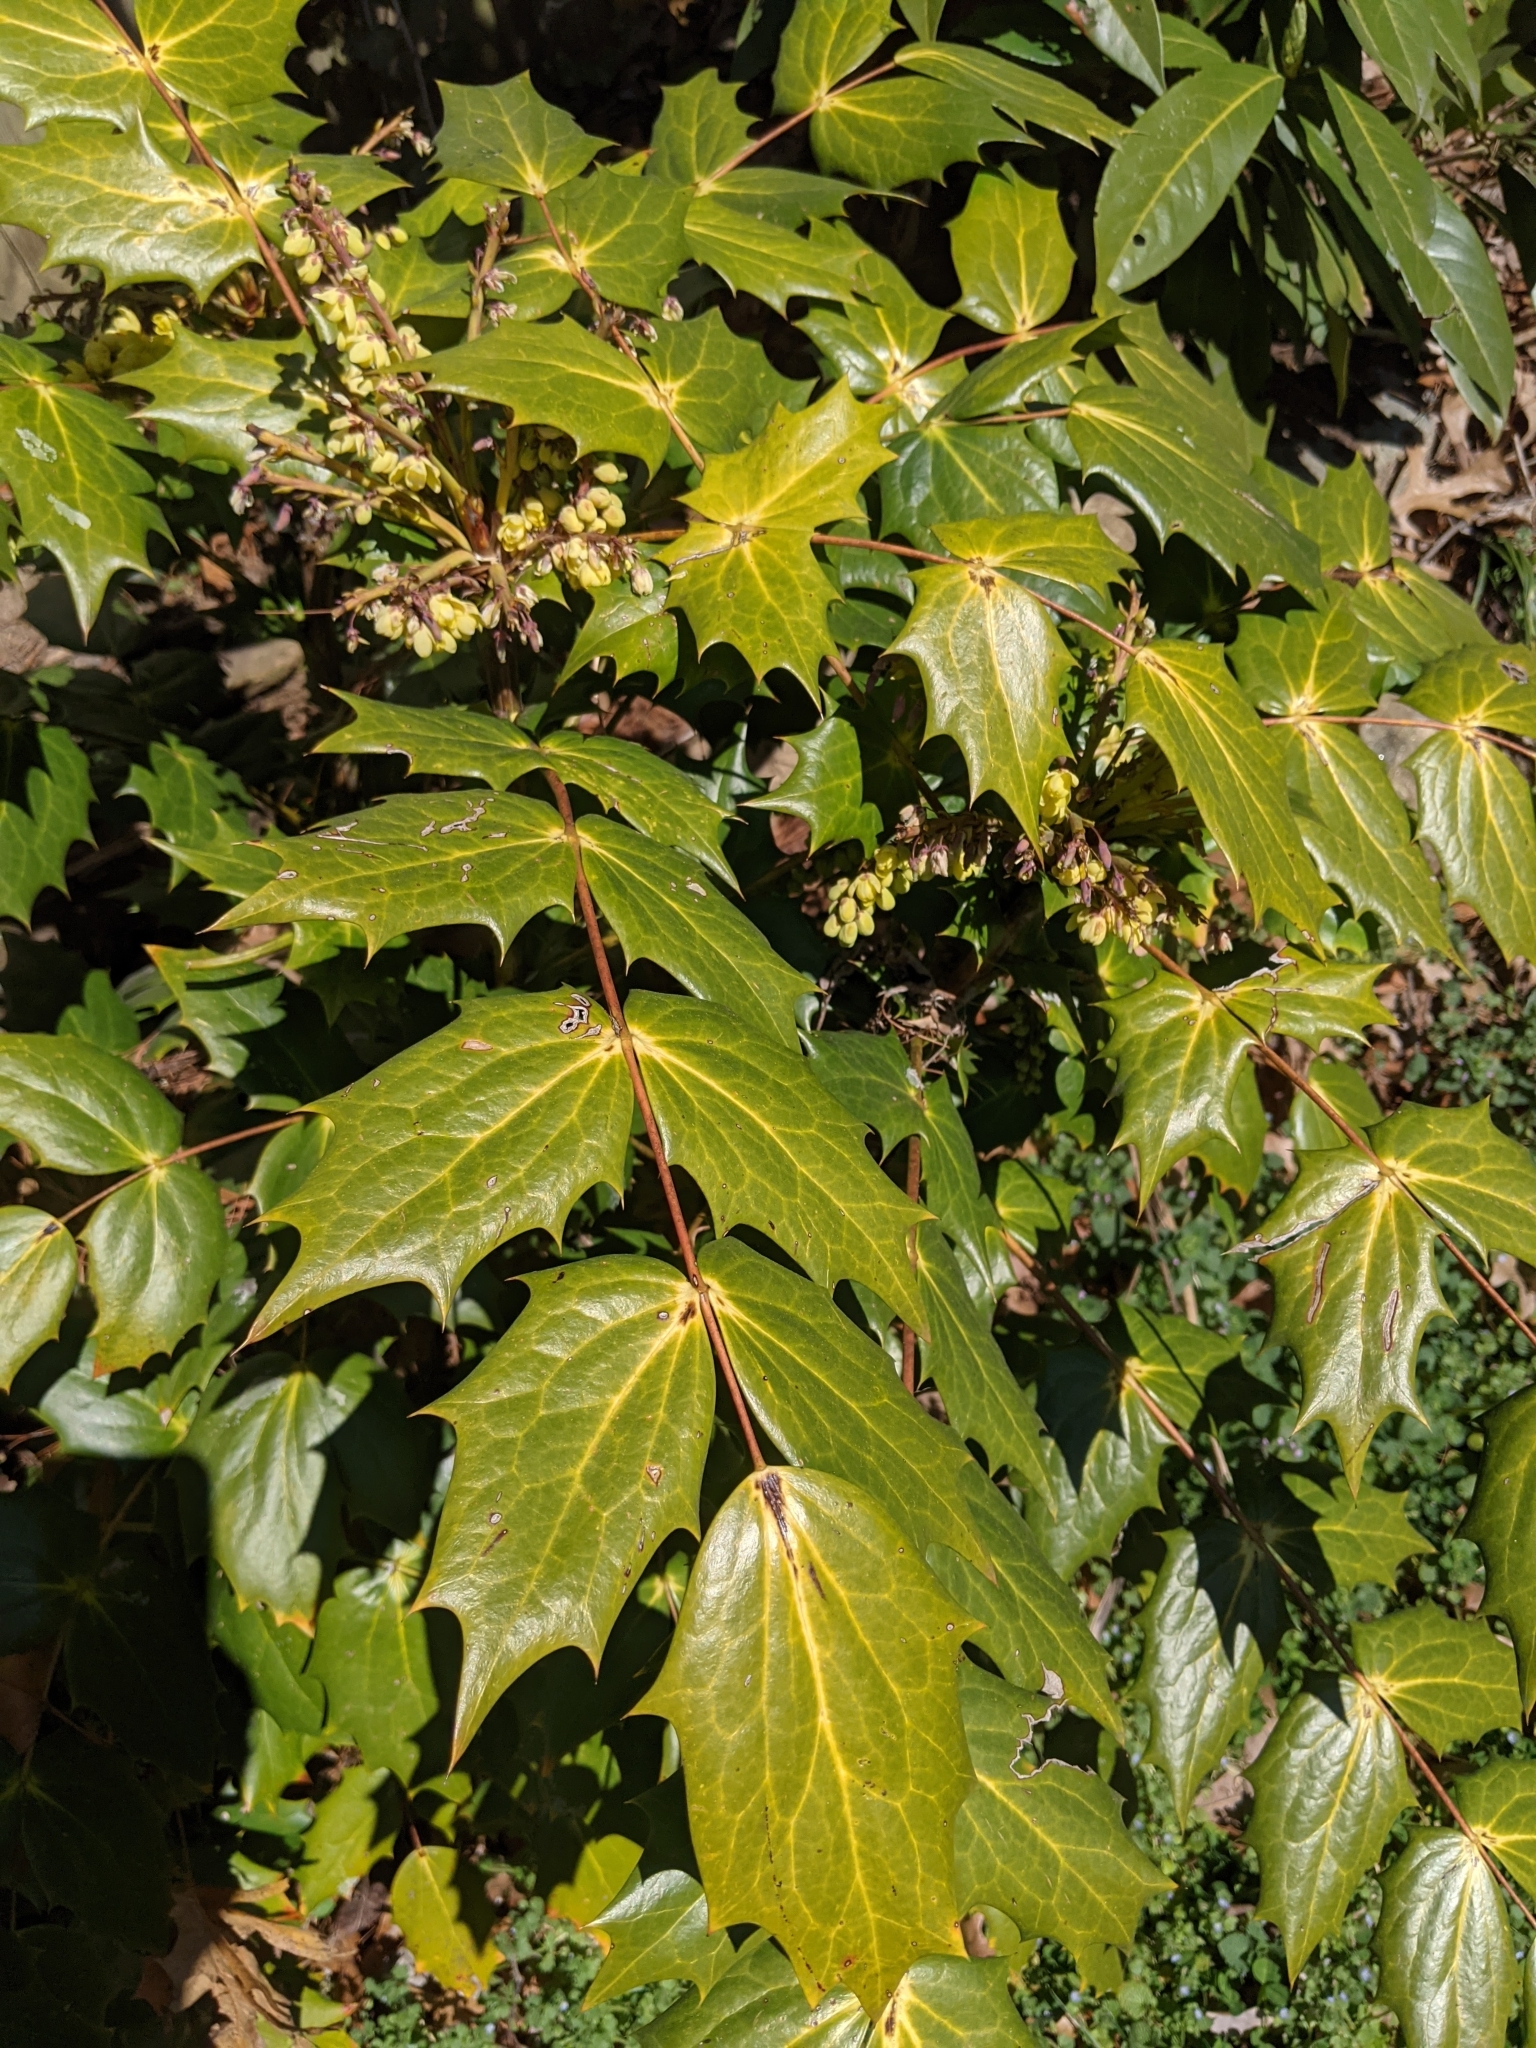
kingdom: Plantae
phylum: Tracheophyta
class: Magnoliopsida
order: Ranunculales
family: Berberidaceae
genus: Mahonia
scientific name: Mahonia bealei
